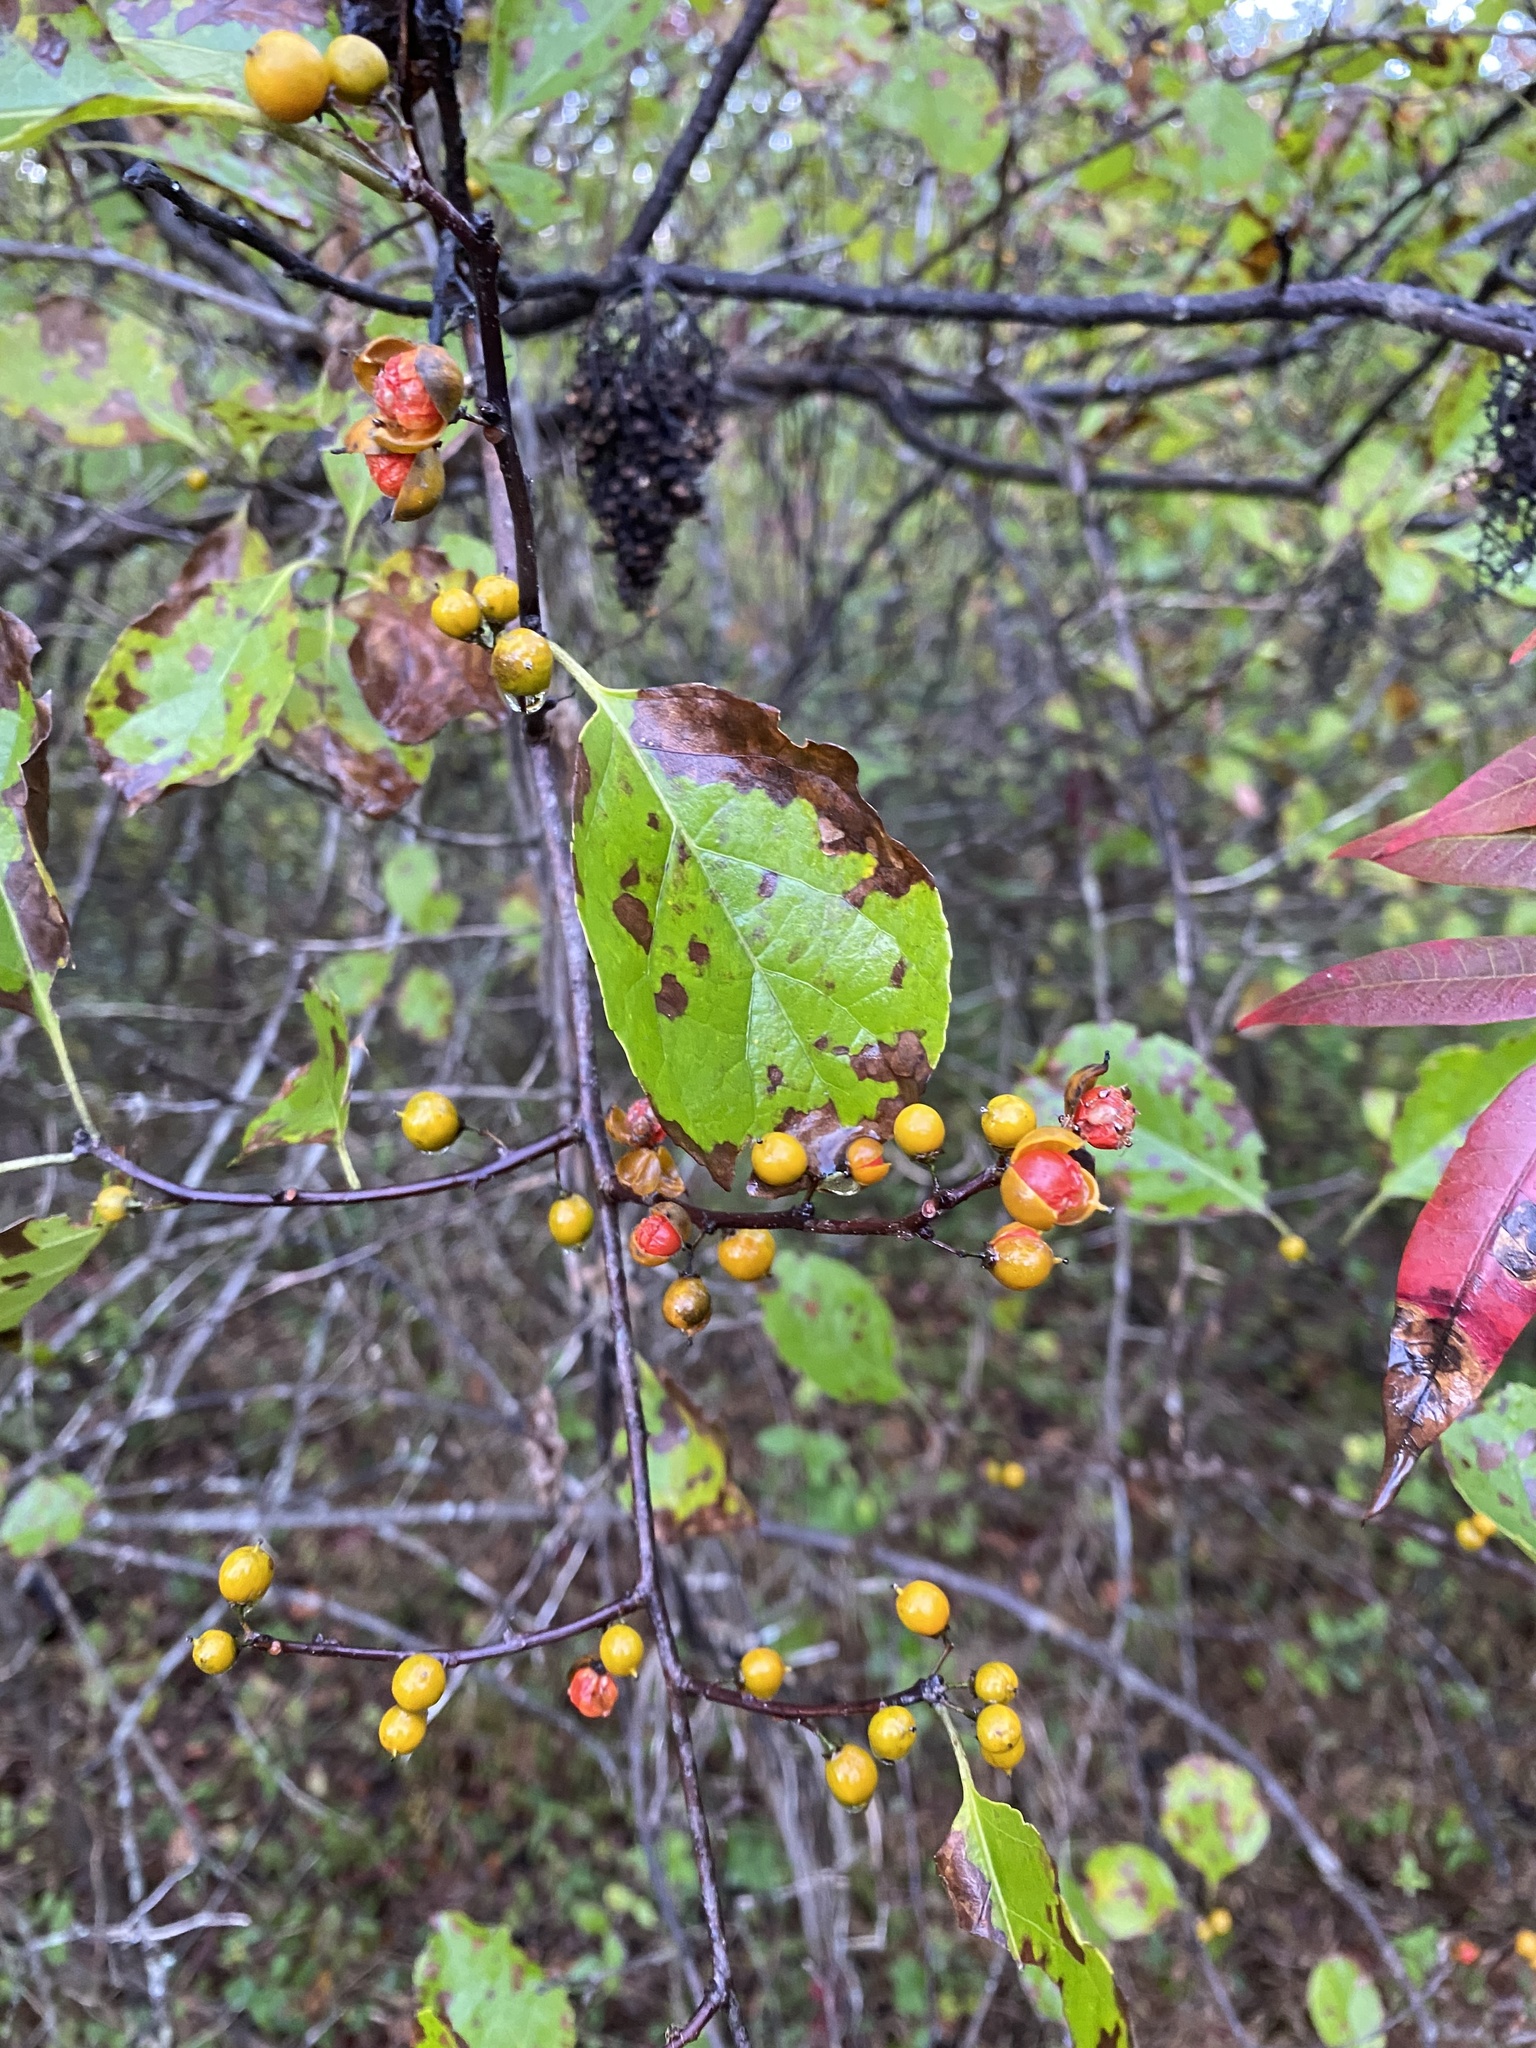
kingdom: Plantae
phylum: Tracheophyta
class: Magnoliopsida
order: Celastrales
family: Celastraceae
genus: Celastrus
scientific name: Celastrus orbiculatus
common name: Oriental bittersweet
